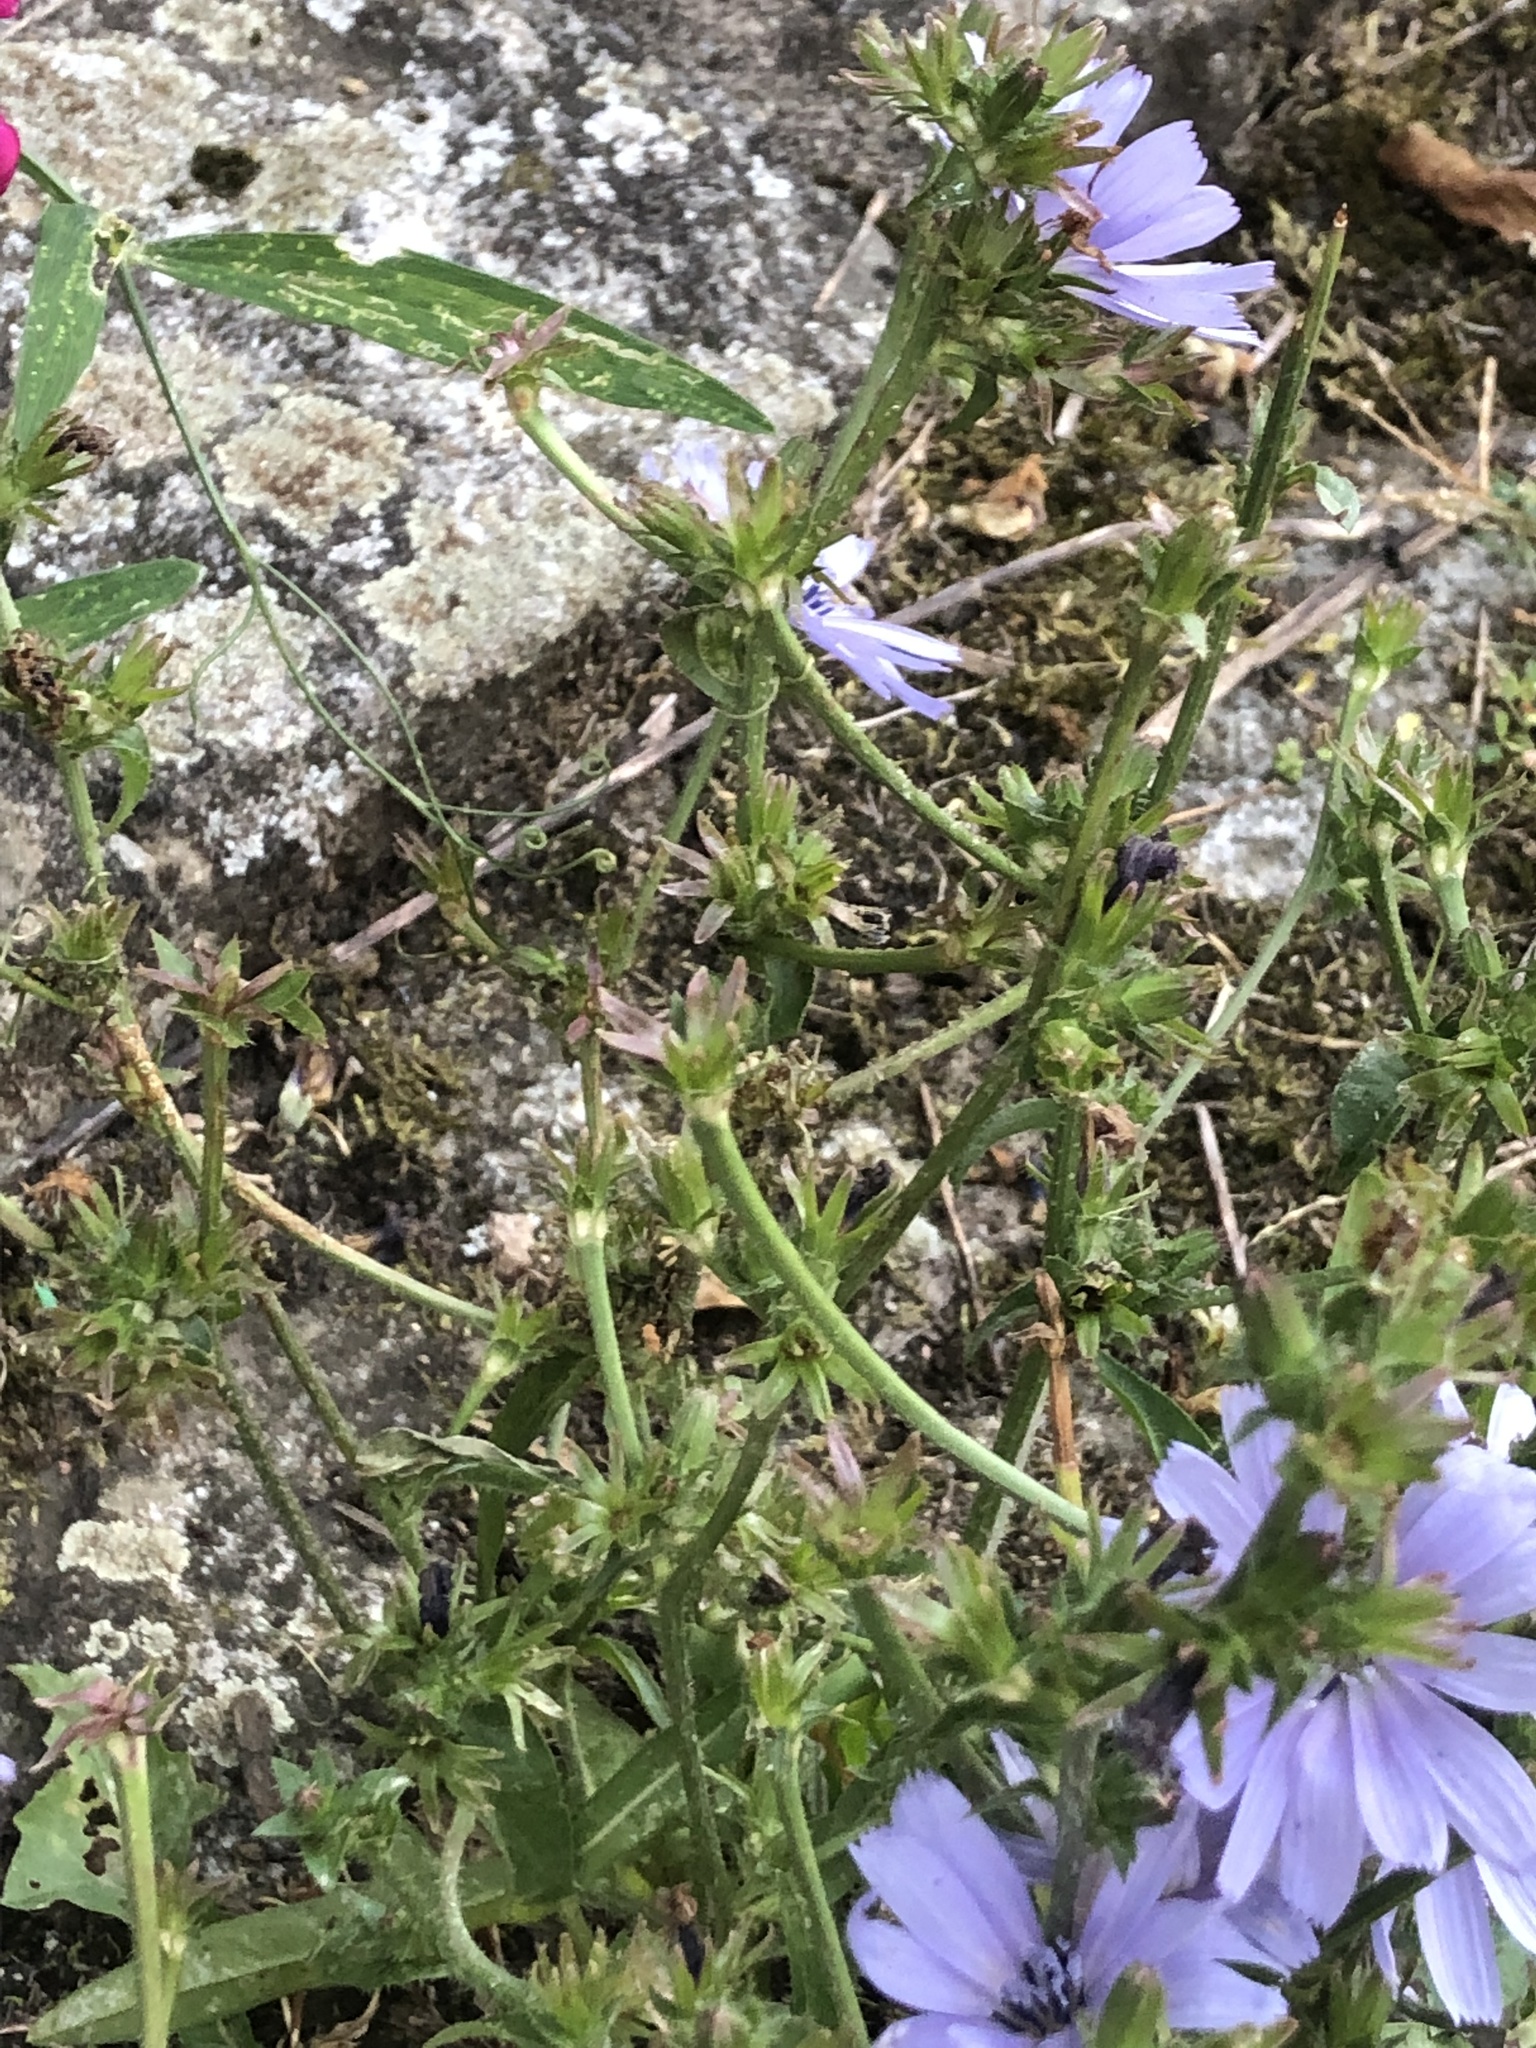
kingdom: Plantae
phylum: Tracheophyta
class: Magnoliopsida
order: Asterales
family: Asteraceae
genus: Cichorium
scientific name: Cichorium intybus
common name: Chicory
